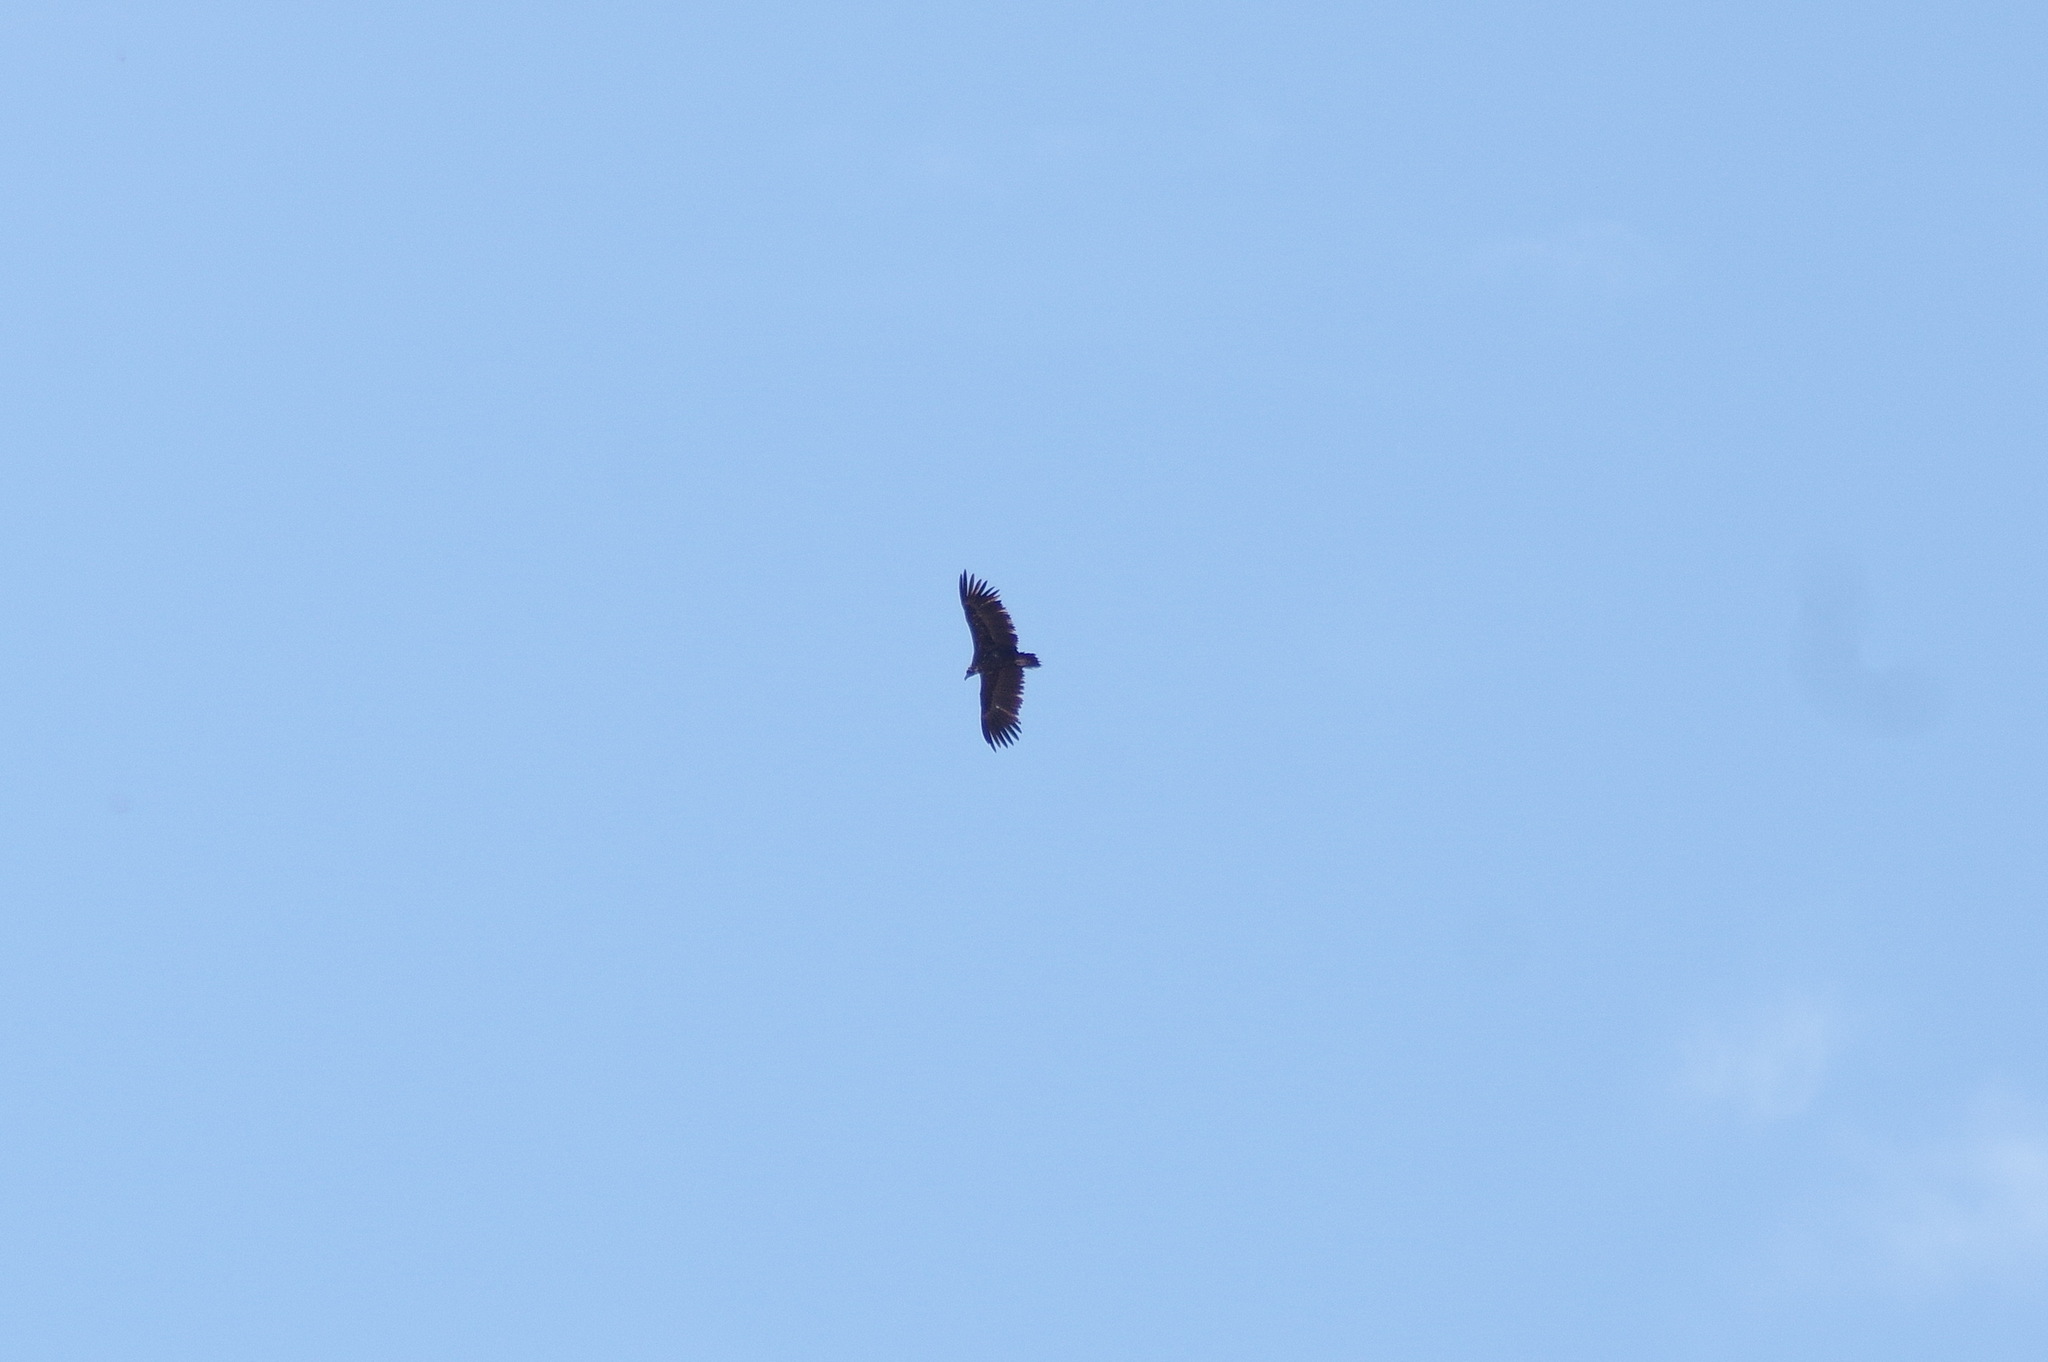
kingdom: Animalia
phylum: Chordata
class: Aves
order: Accipitriformes
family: Accipitridae
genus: Aegypius
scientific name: Aegypius monachus
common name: Cinereous vulture
